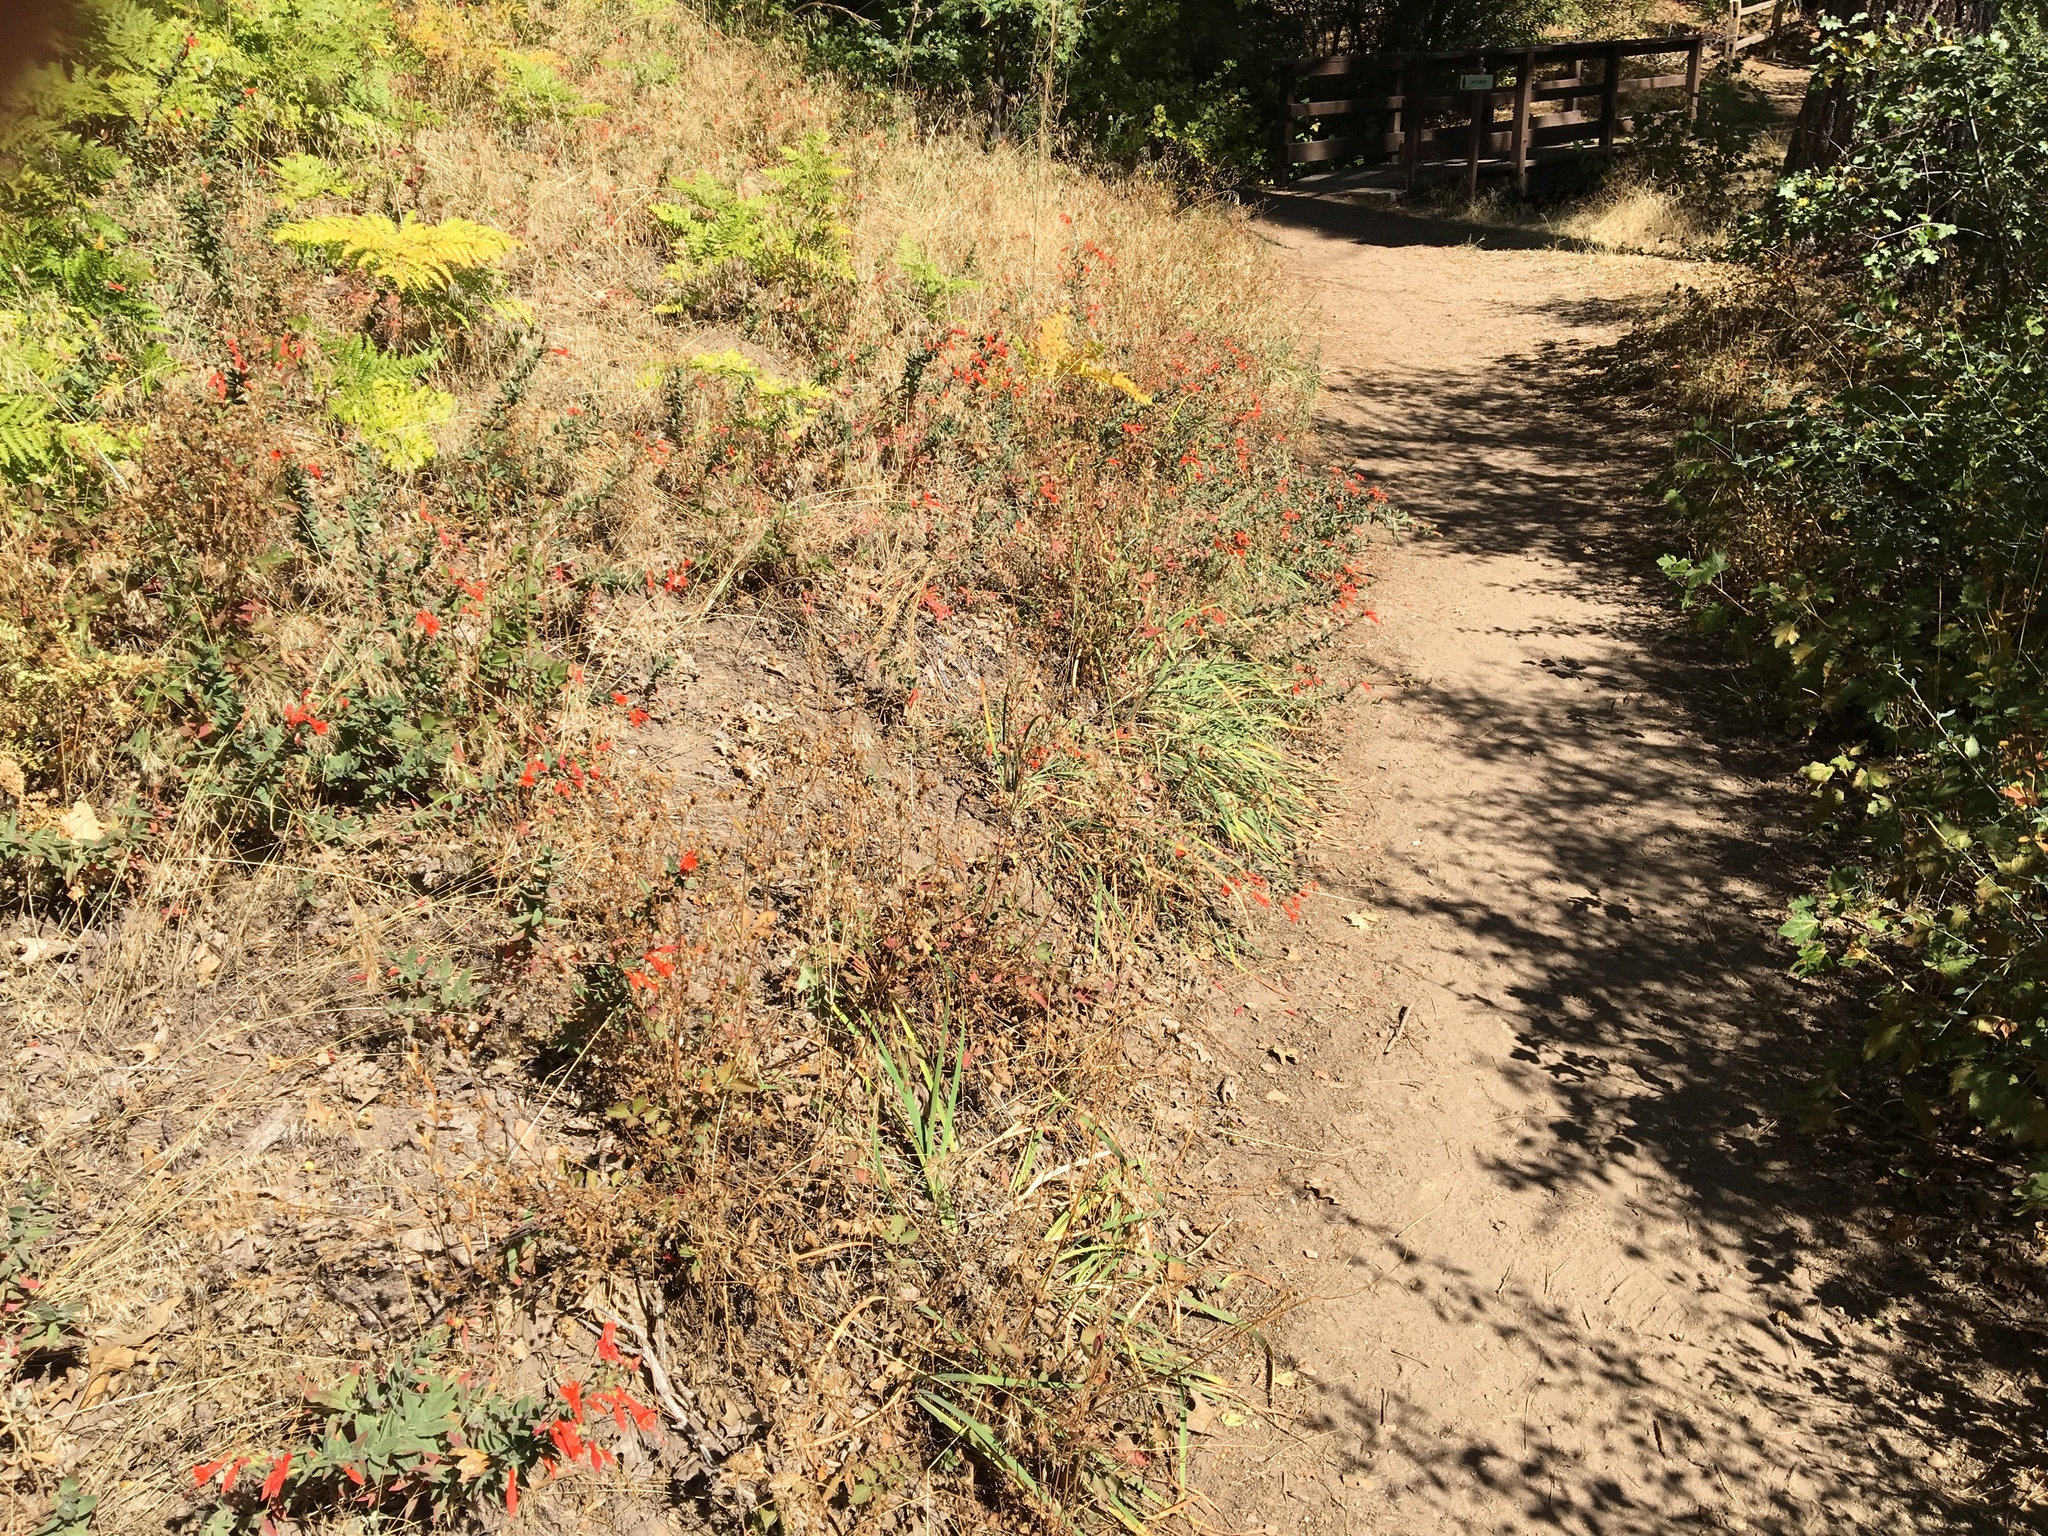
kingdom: Plantae
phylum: Tracheophyta
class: Magnoliopsida
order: Myrtales
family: Onagraceae
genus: Epilobium
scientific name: Epilobium canum
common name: California-fuchsia
